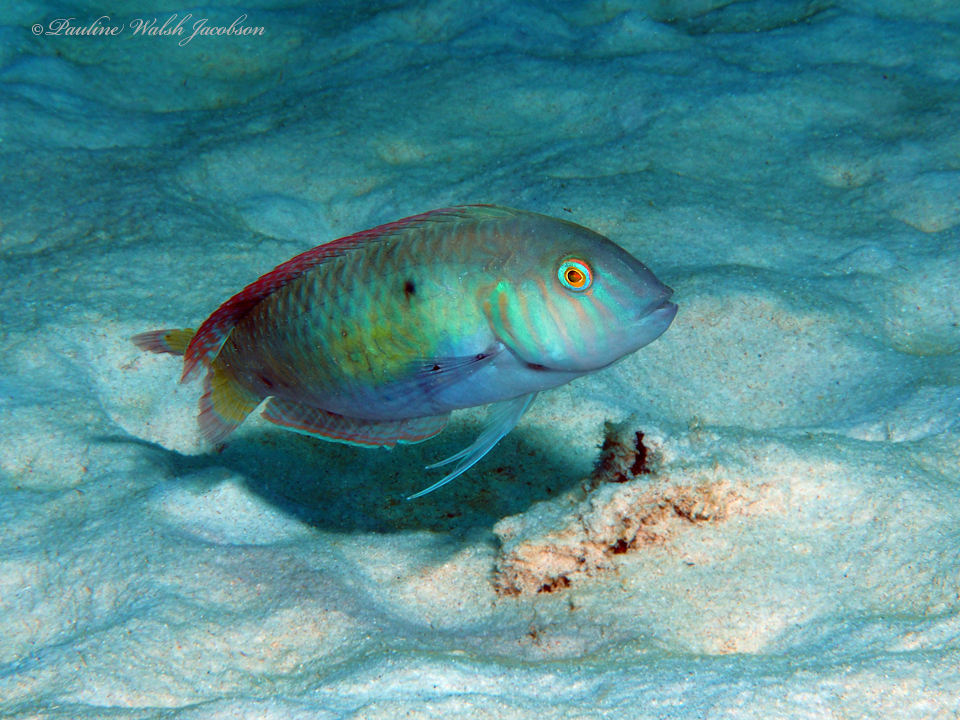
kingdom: Animalia
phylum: Chordata
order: Perciformes
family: Labridae
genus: Xyrichtys
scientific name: Xyrichtys splendens
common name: Green razorfish
